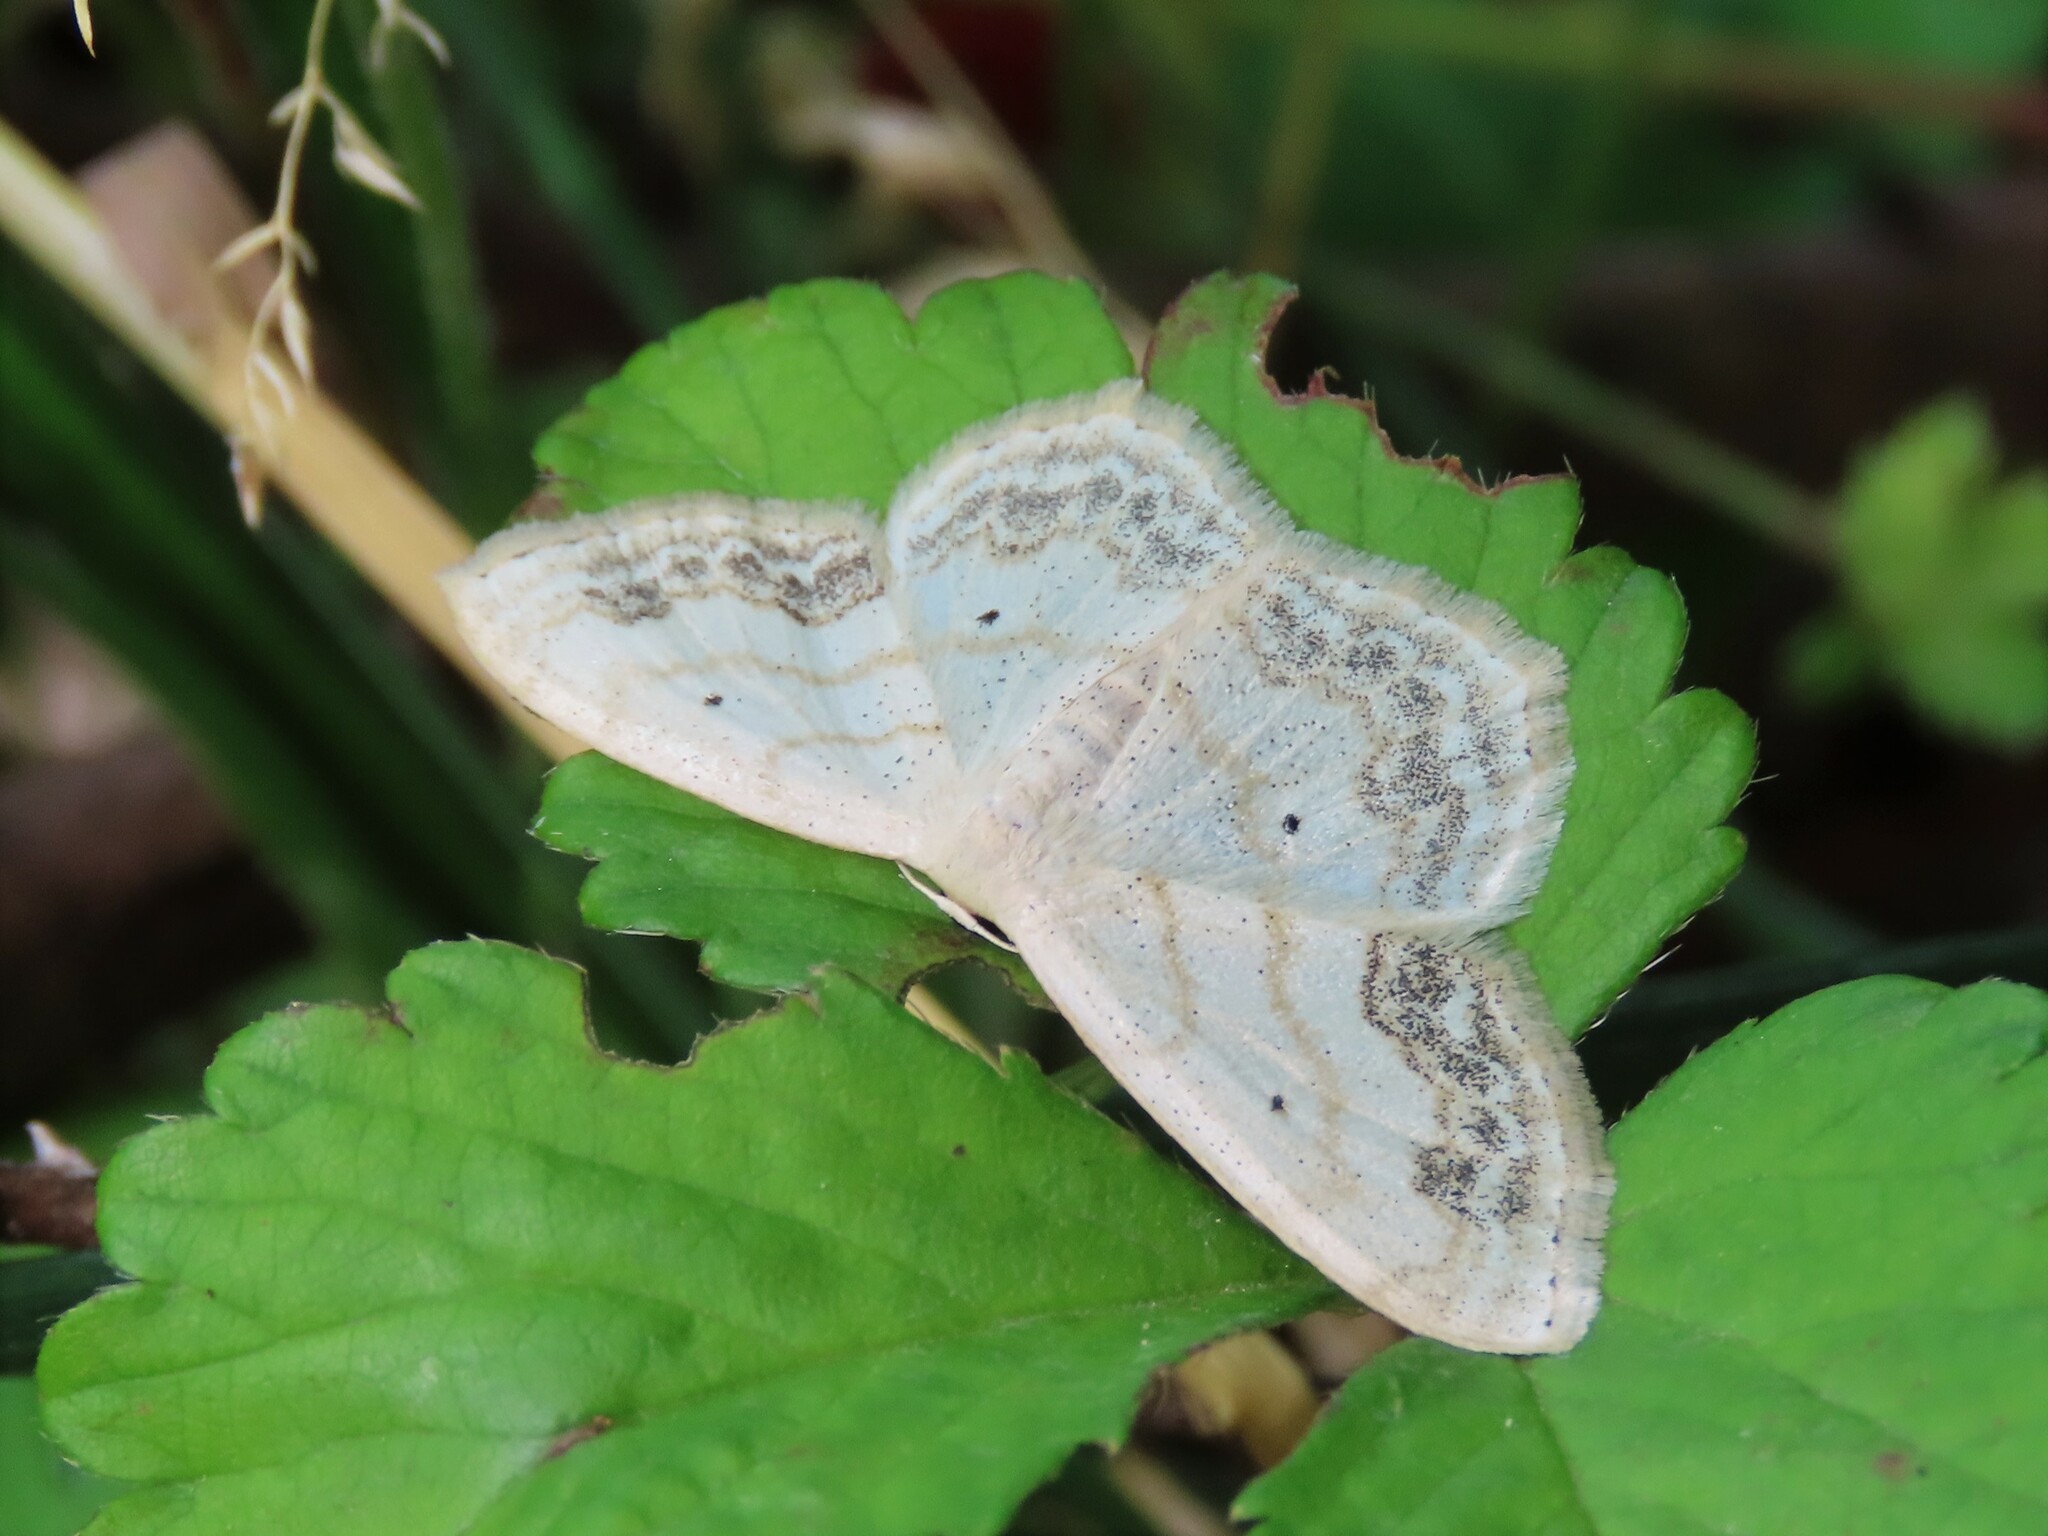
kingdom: Animalia
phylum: Arthropoda
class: Insecta
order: Lepidoptera
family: Geometridae
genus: Scopula
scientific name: Scopula limboundata
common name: Large lace border
